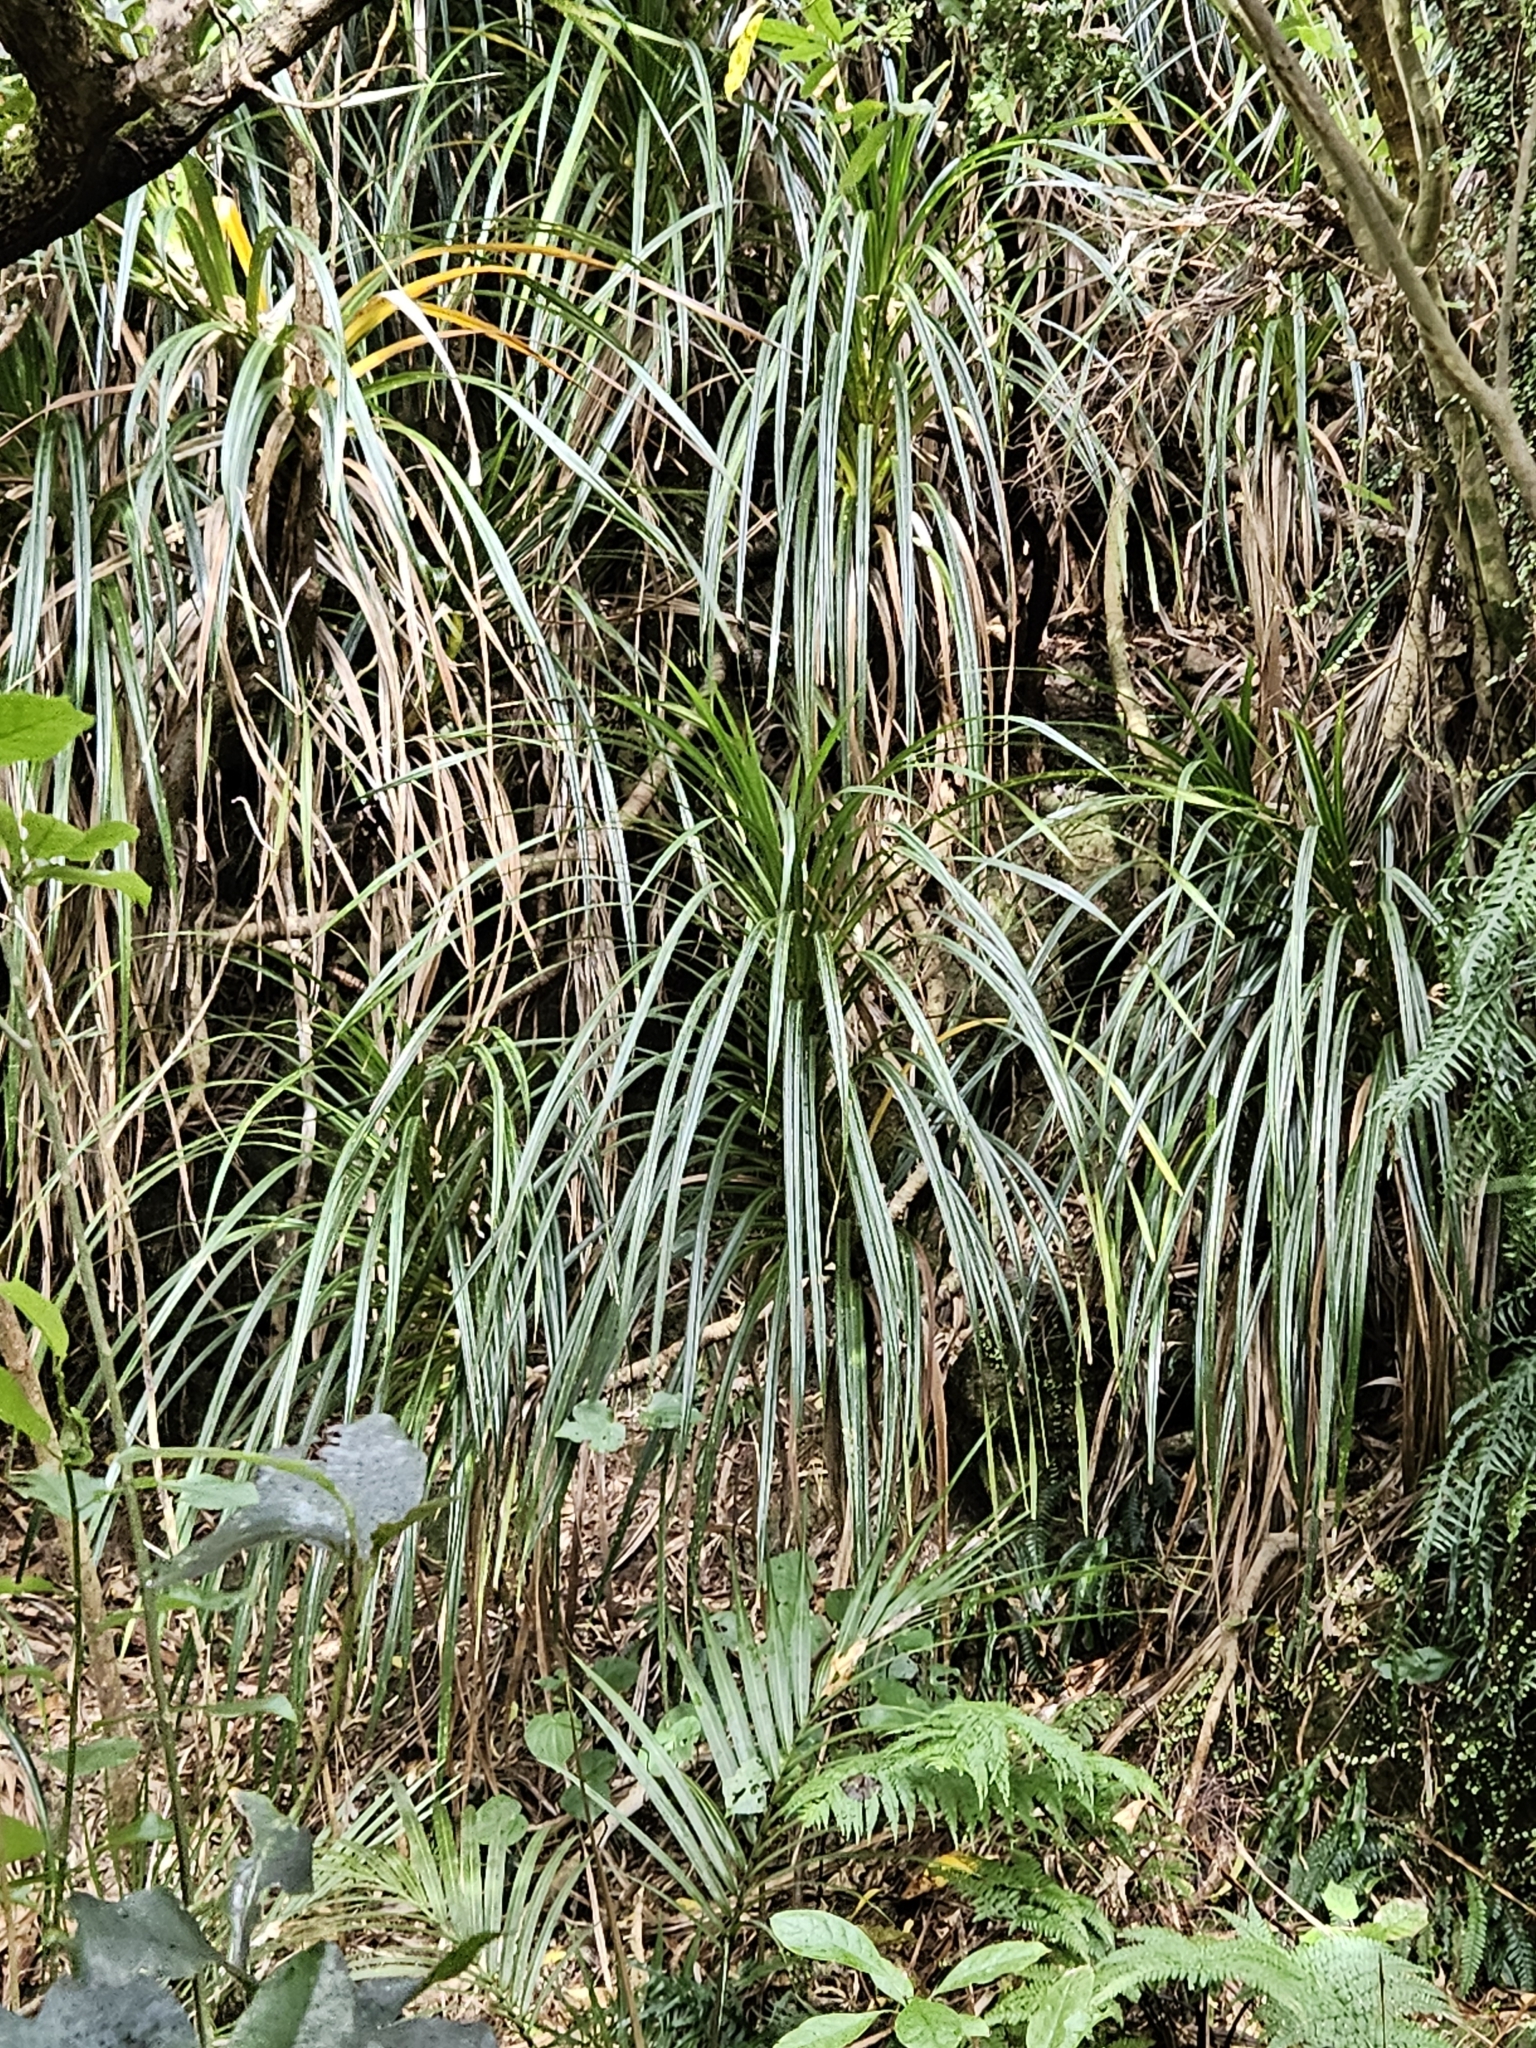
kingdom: Plantae
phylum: Tracheophyta
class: Liliopsida
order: Pandanales
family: Pandanaceae
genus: Freycinetia
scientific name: Freycinetia banksii
